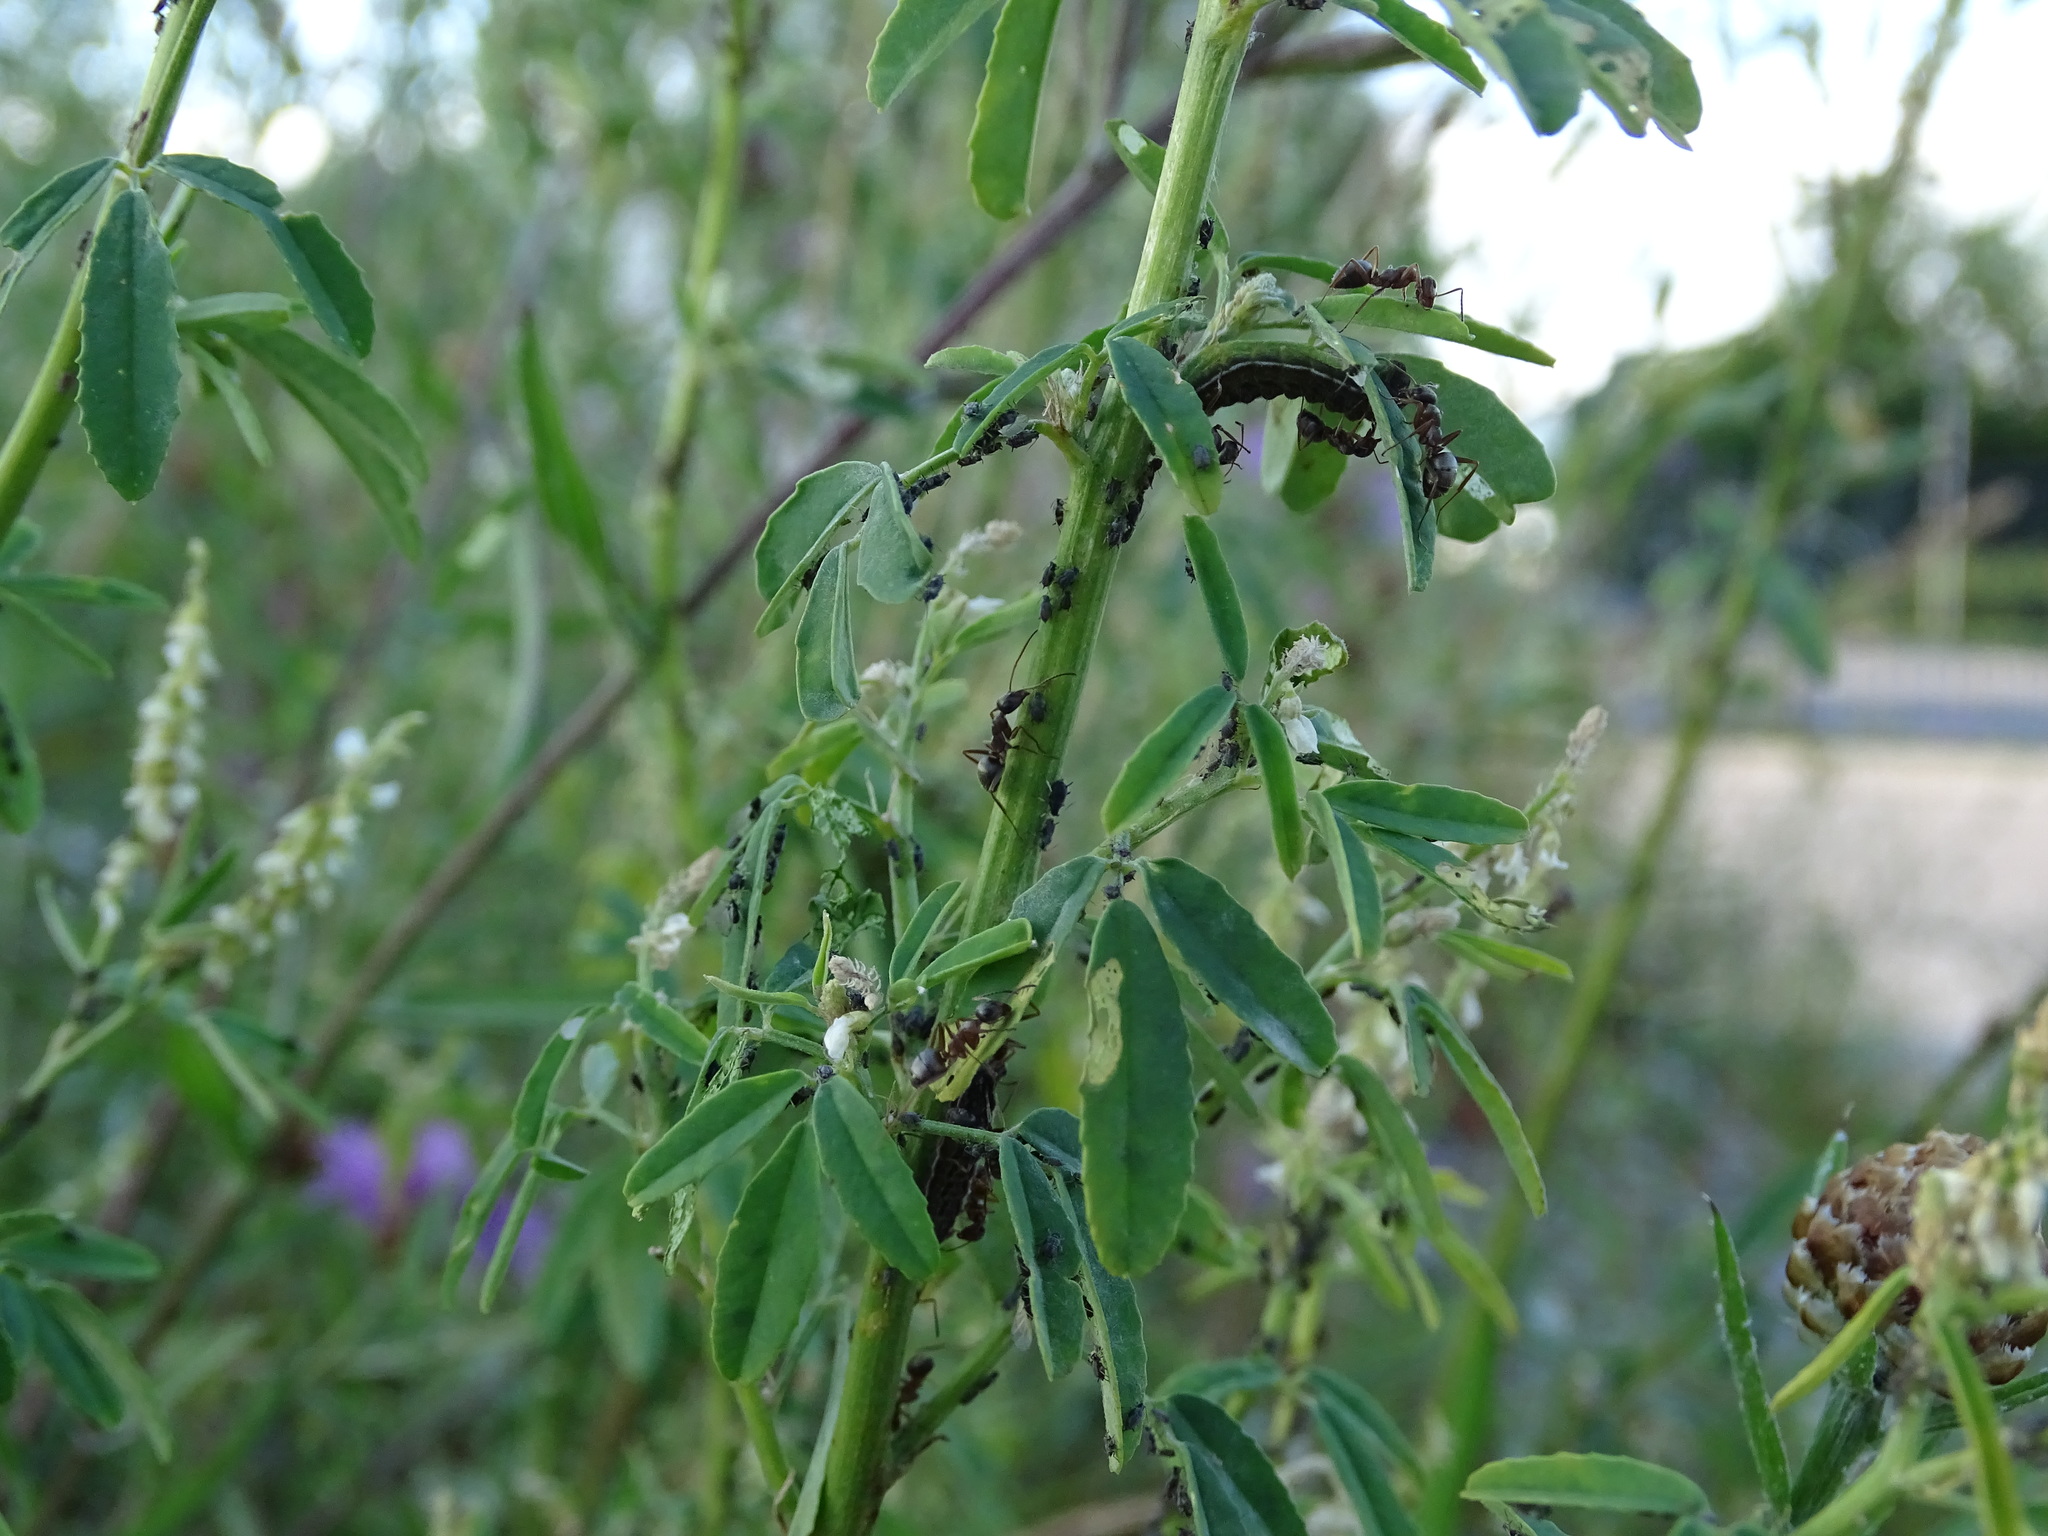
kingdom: Animalia
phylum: Arthropoda
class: Insecta
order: Lepidoptera
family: Lycaenidae
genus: Lycaeides
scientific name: Lycaeides idas
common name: Northern blue
